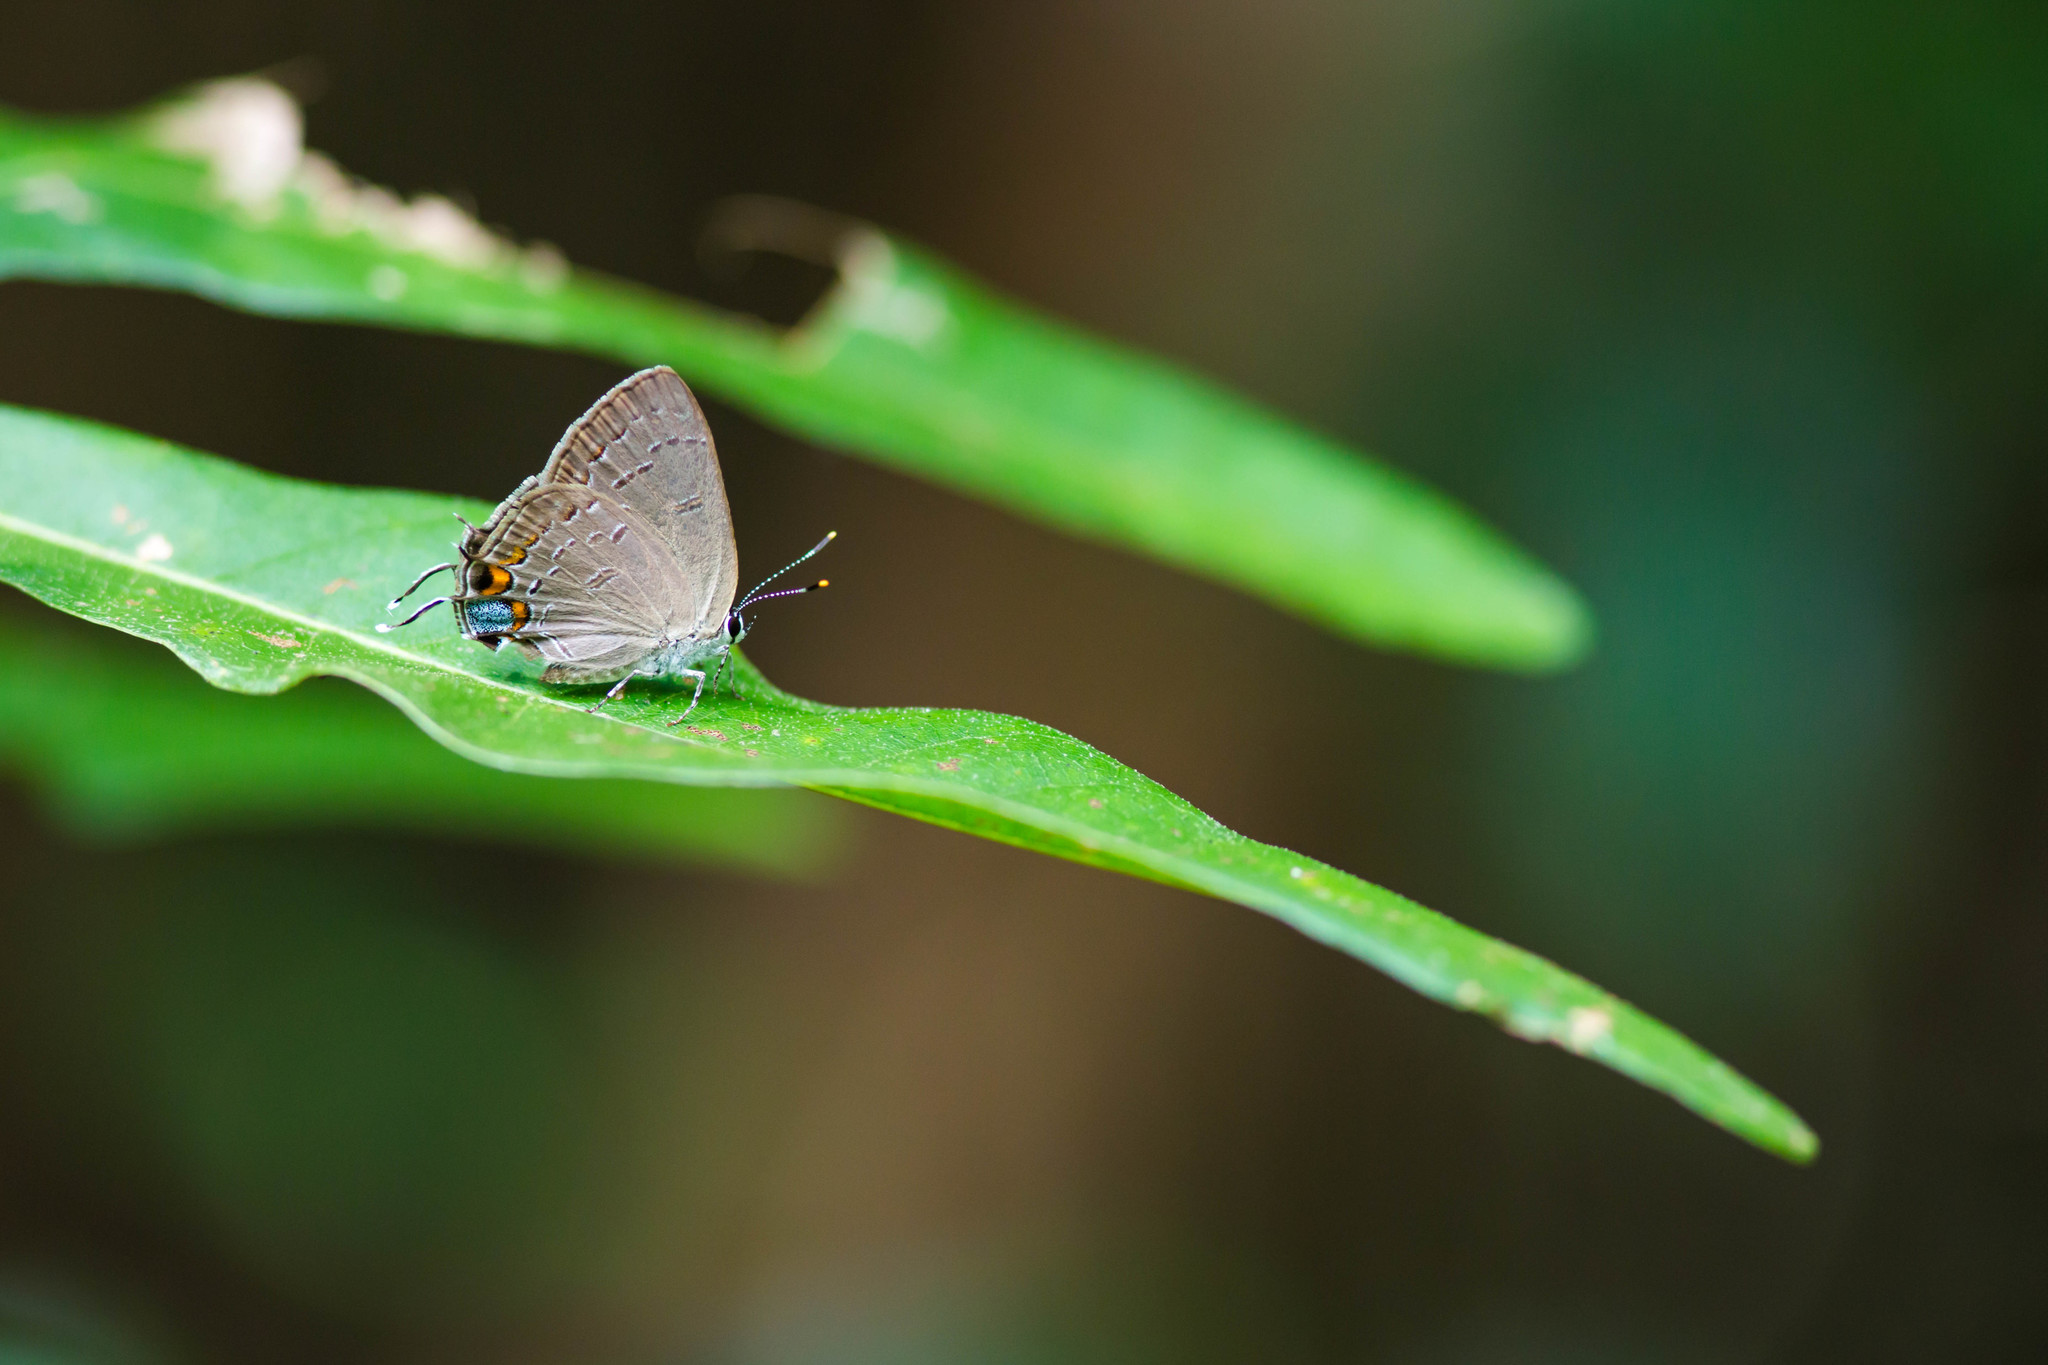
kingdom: Animalia
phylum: Arthropoda
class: Insecta
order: Lepidoptera
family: Lycaenidae
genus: Strymon
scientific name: Strymon kingi
